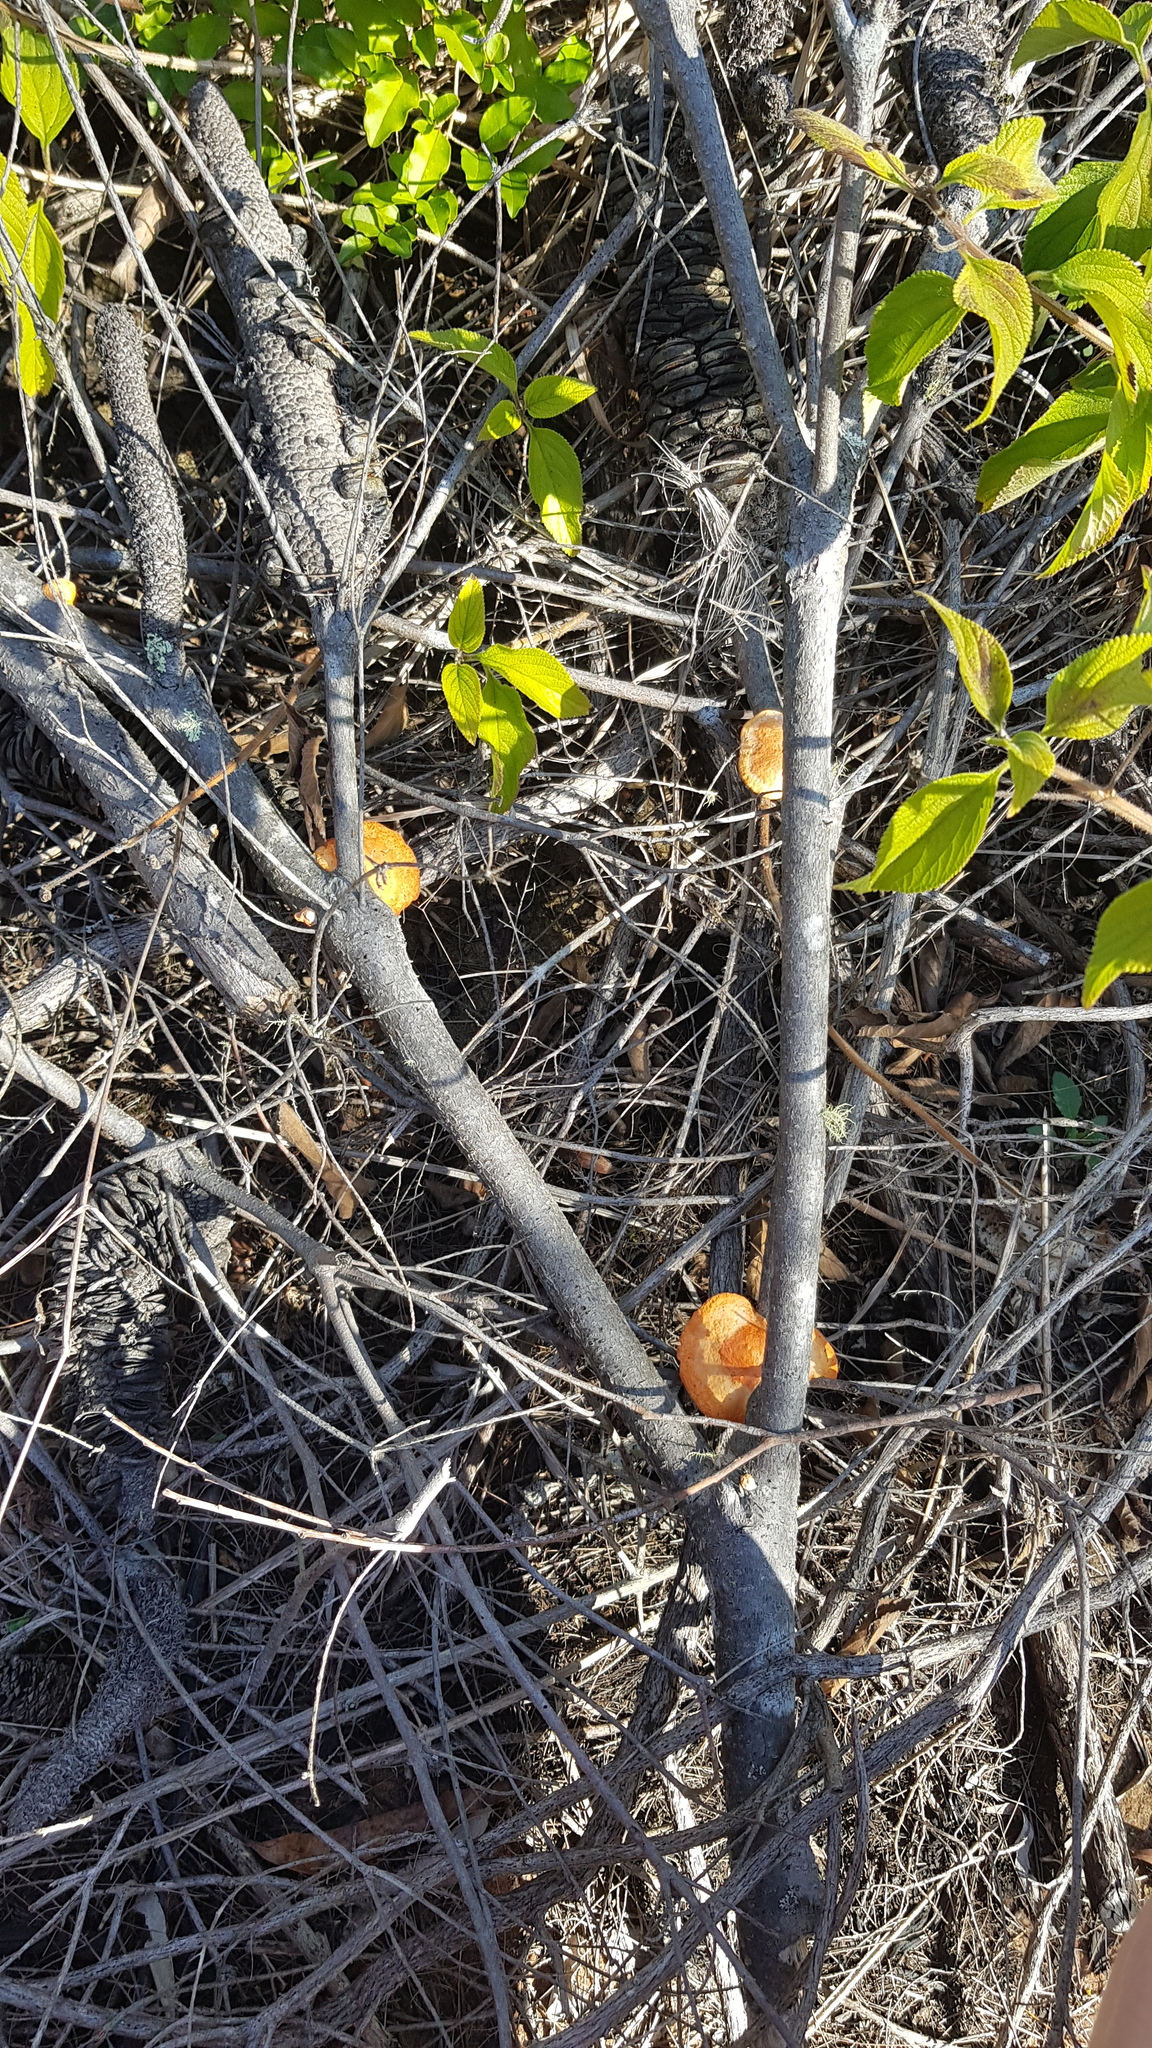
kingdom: Fungi
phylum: Basidiomycota
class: Agaricomycetes
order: Polyporales
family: Polyporaceae
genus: Trametes
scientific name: Trametes coccinea
